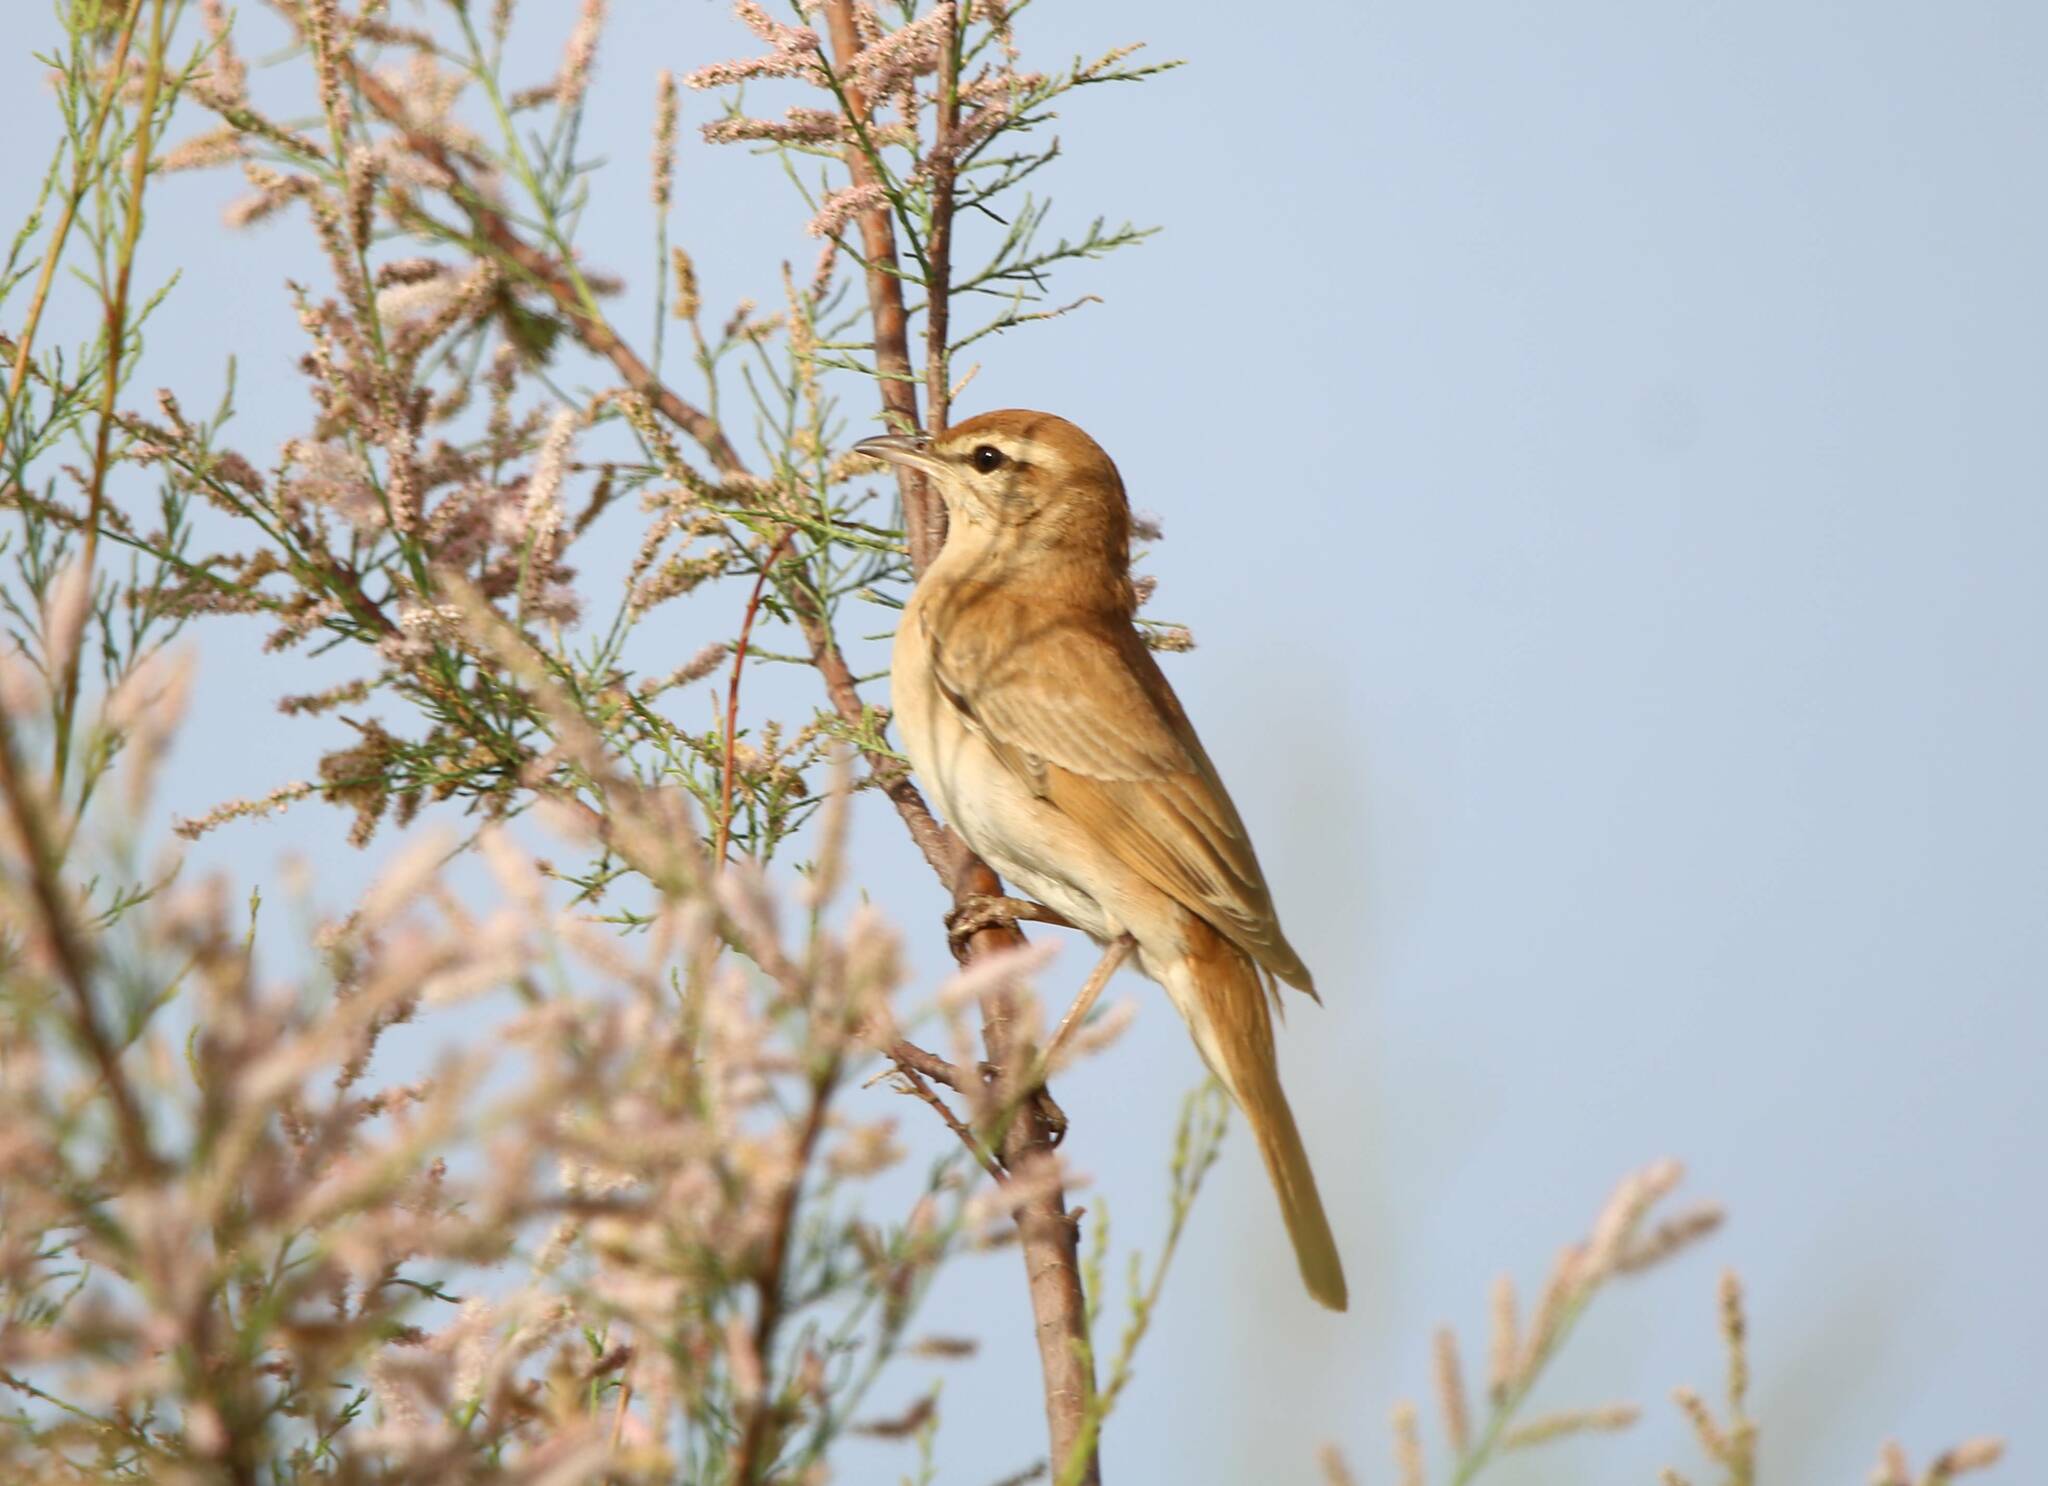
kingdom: Animalia
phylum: Chordata
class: Aves
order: Passeriformes
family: Muscicapidae
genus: Erythropygia
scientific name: Erythropygia galactotes
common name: Rufous-tailed scrub robin
